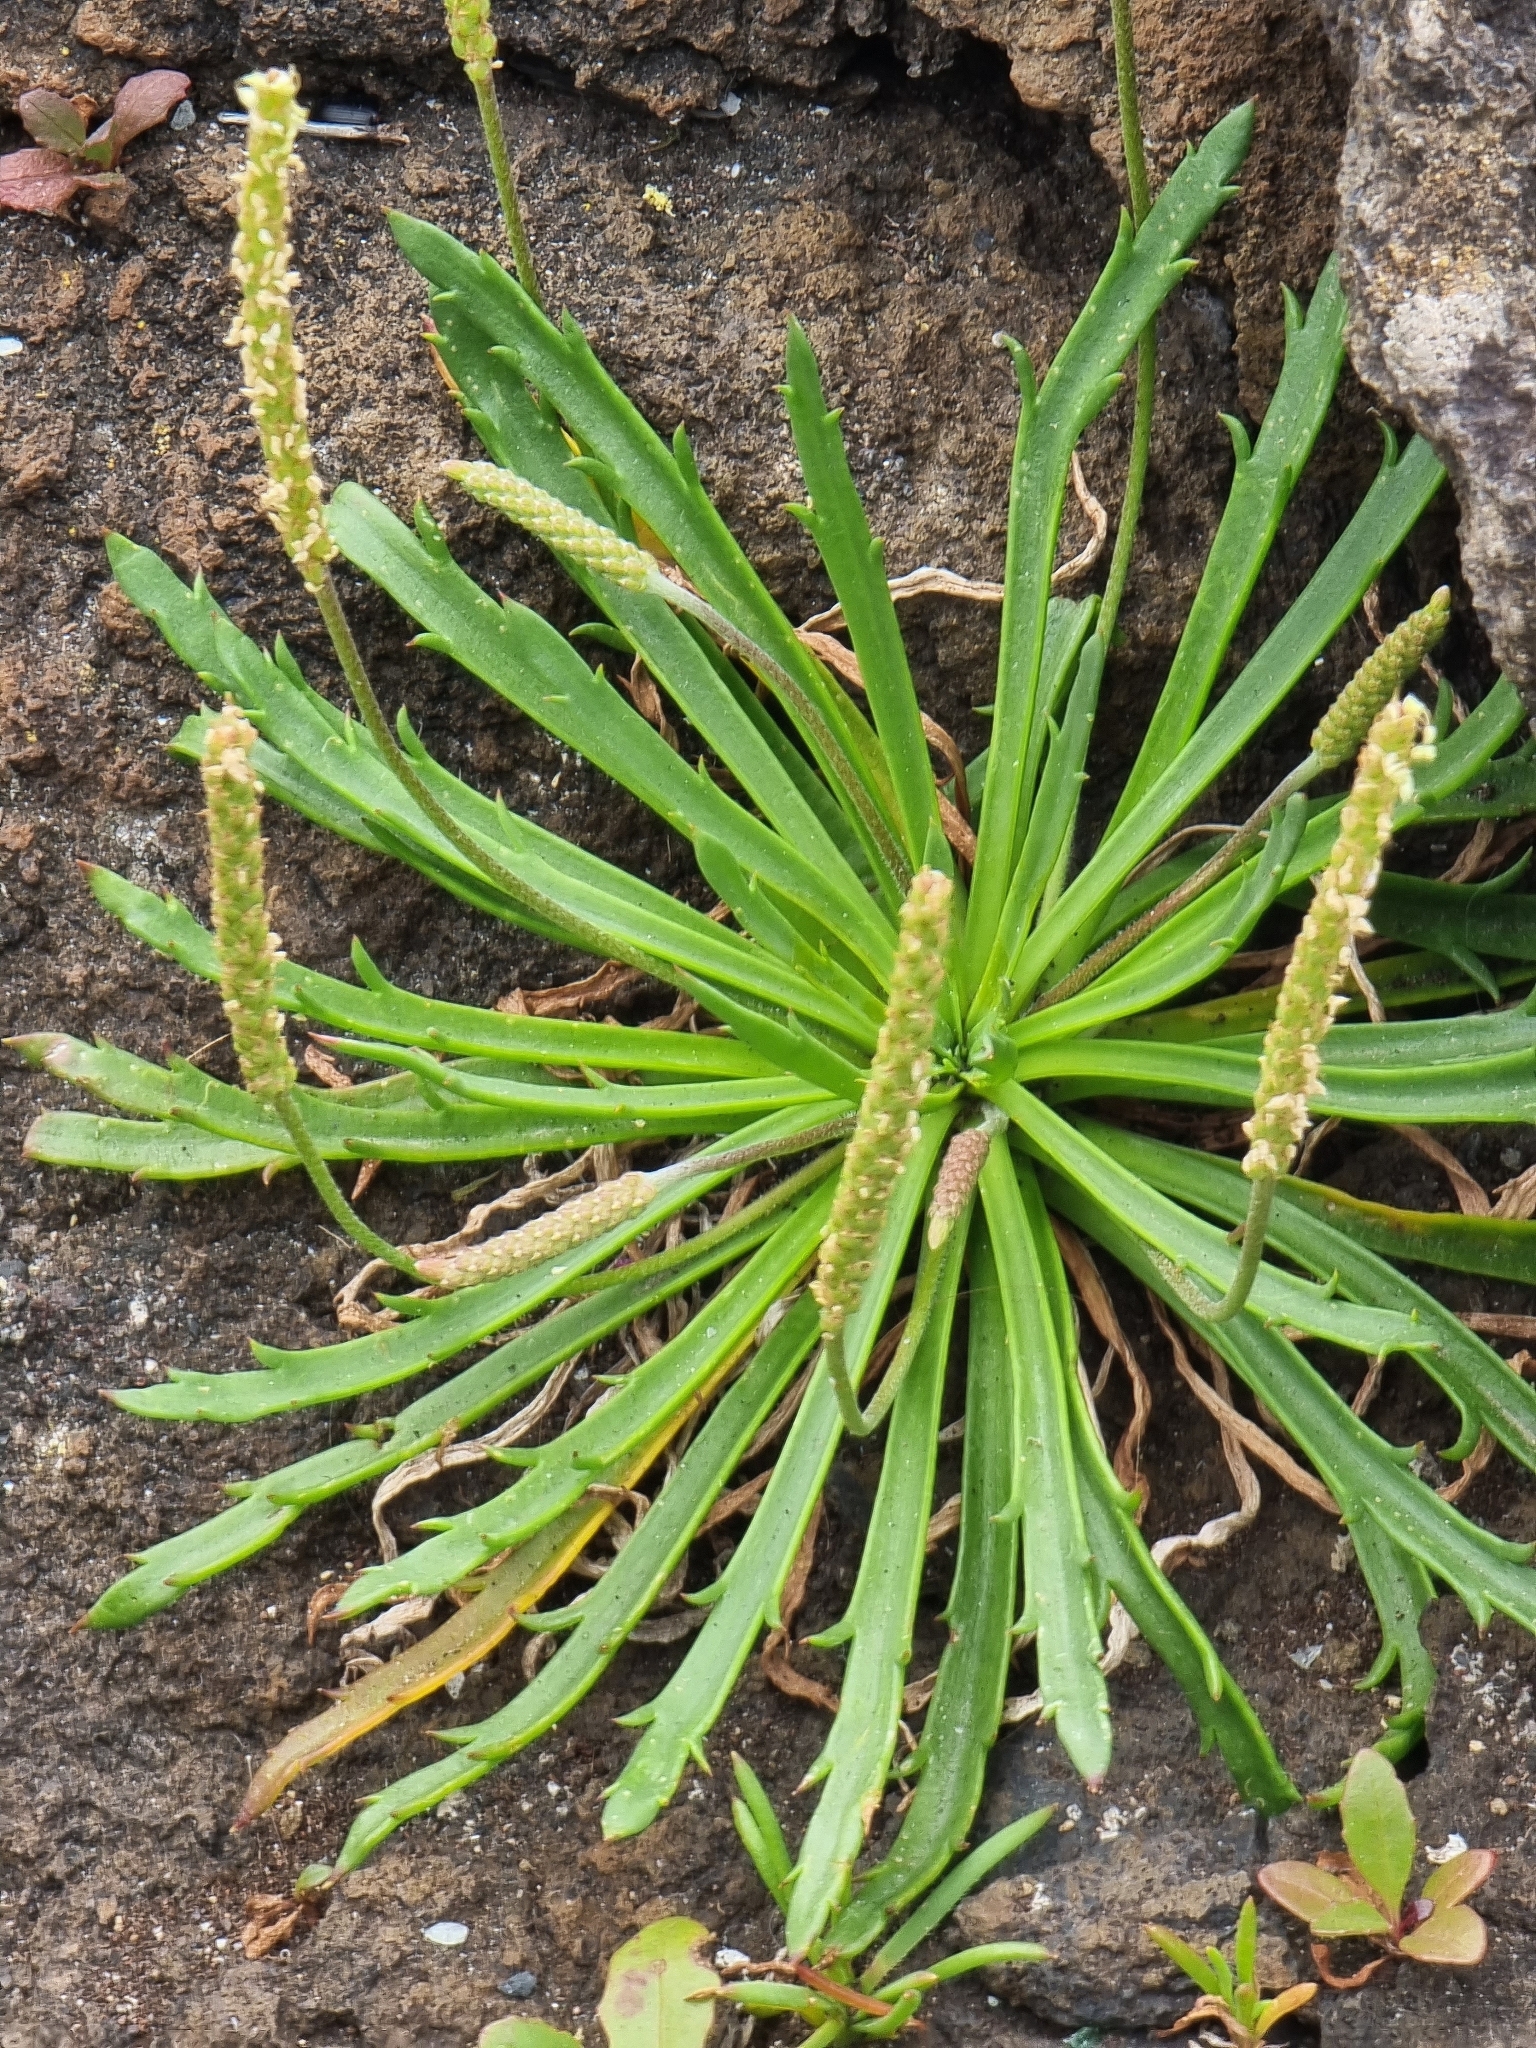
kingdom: Plantae
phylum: Tracheophyta
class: Magnoliopsida
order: Lamiales
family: Plantaginaceae
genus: Plantago
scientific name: Plantago coronopus
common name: Buck's-horn plantain
